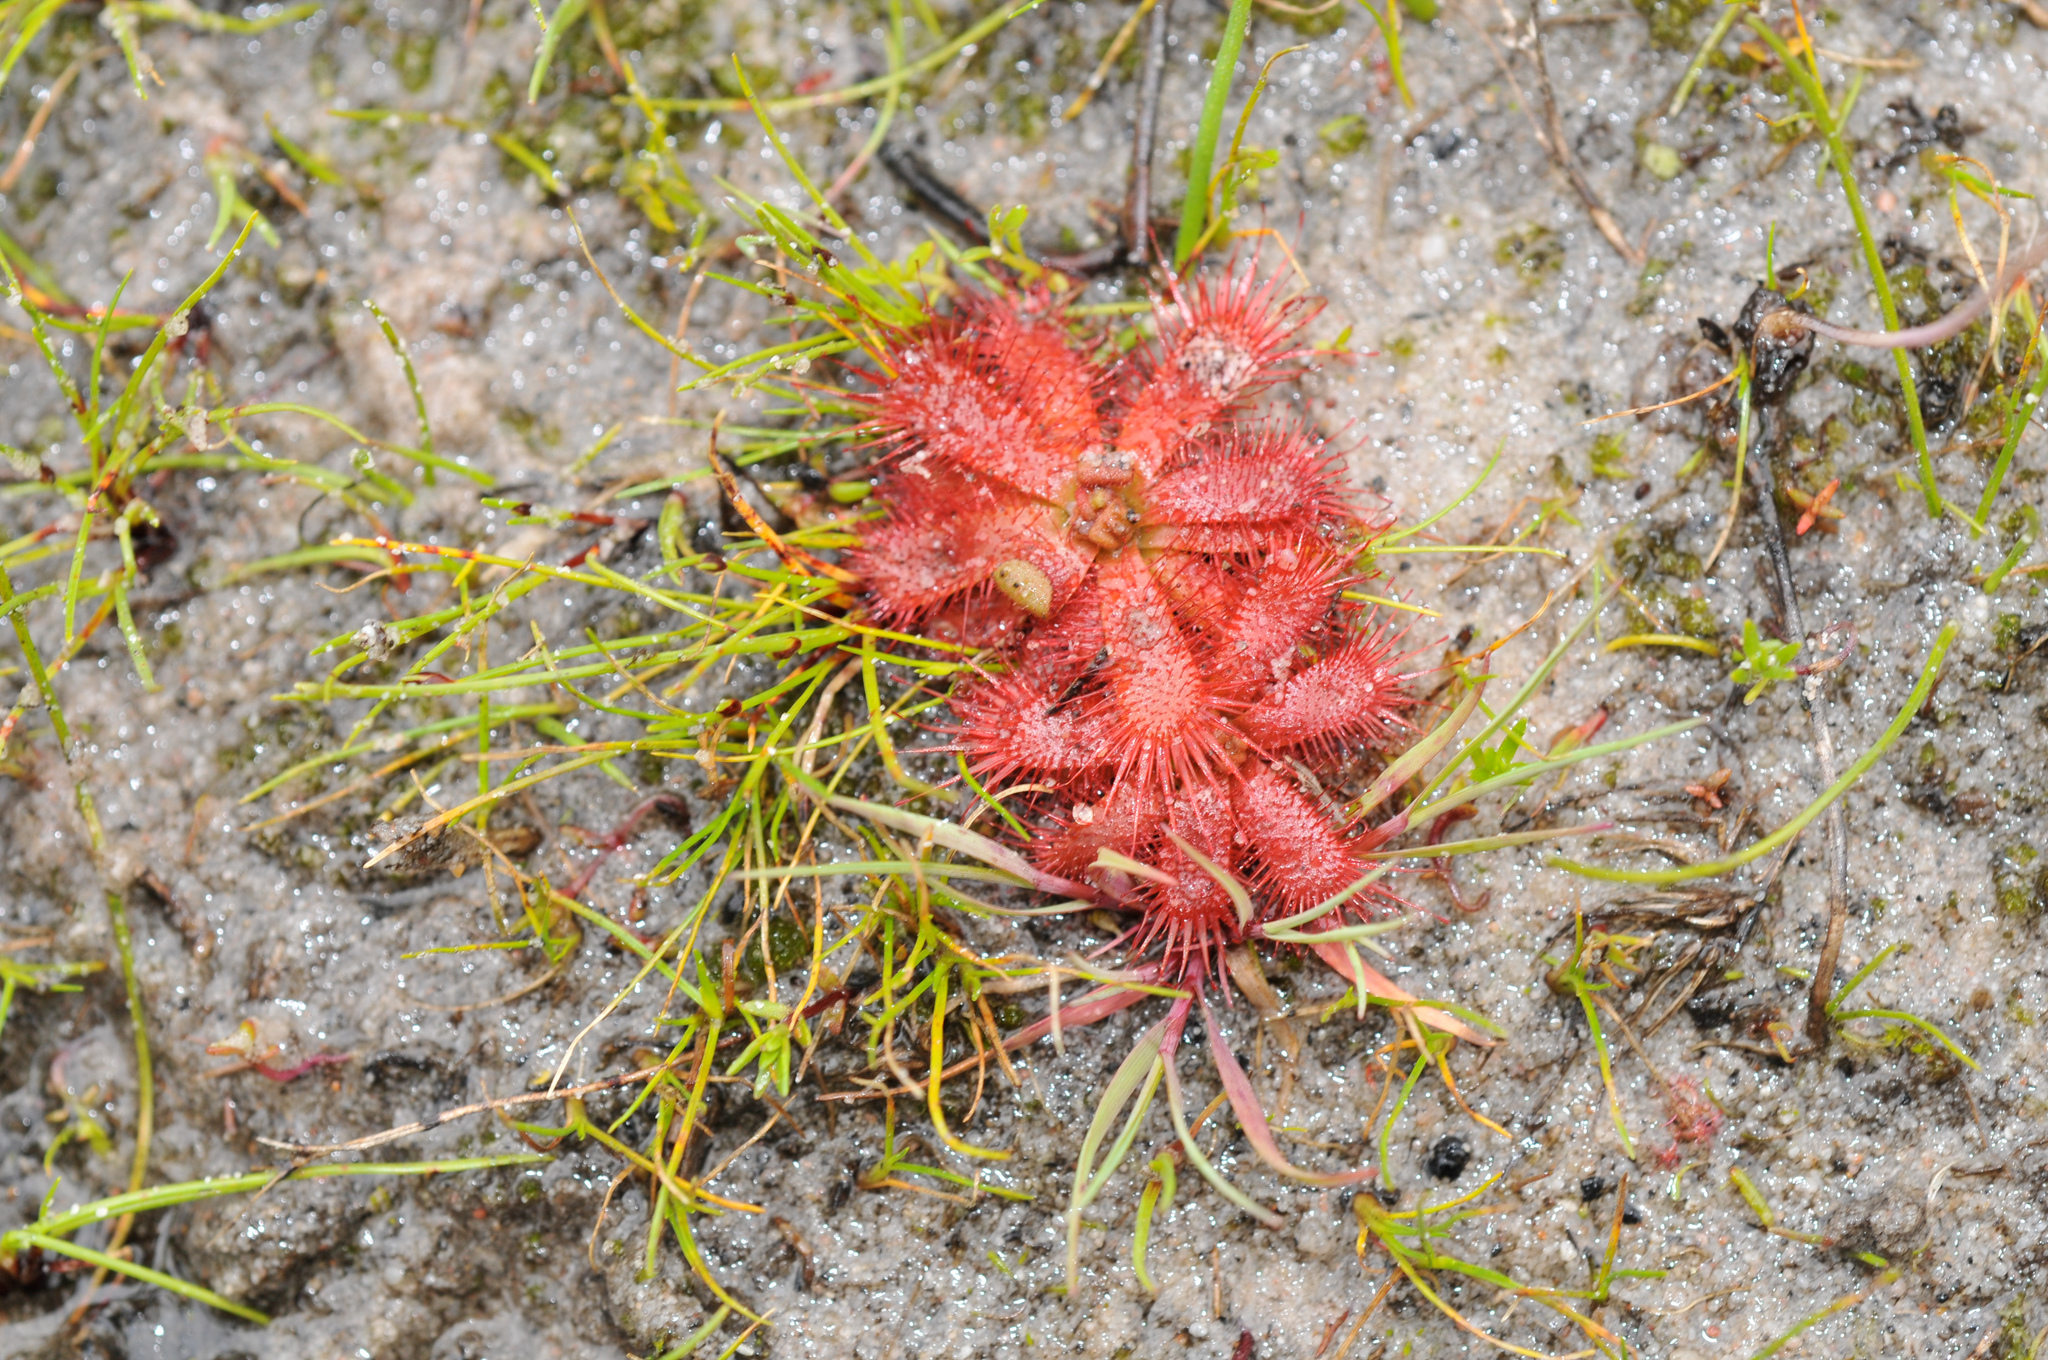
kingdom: Plantae
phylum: Tracheophyta
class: Magnoliopsida
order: Caryophyllales
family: Droseraceae
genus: Drosera
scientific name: Drosera trinervia
